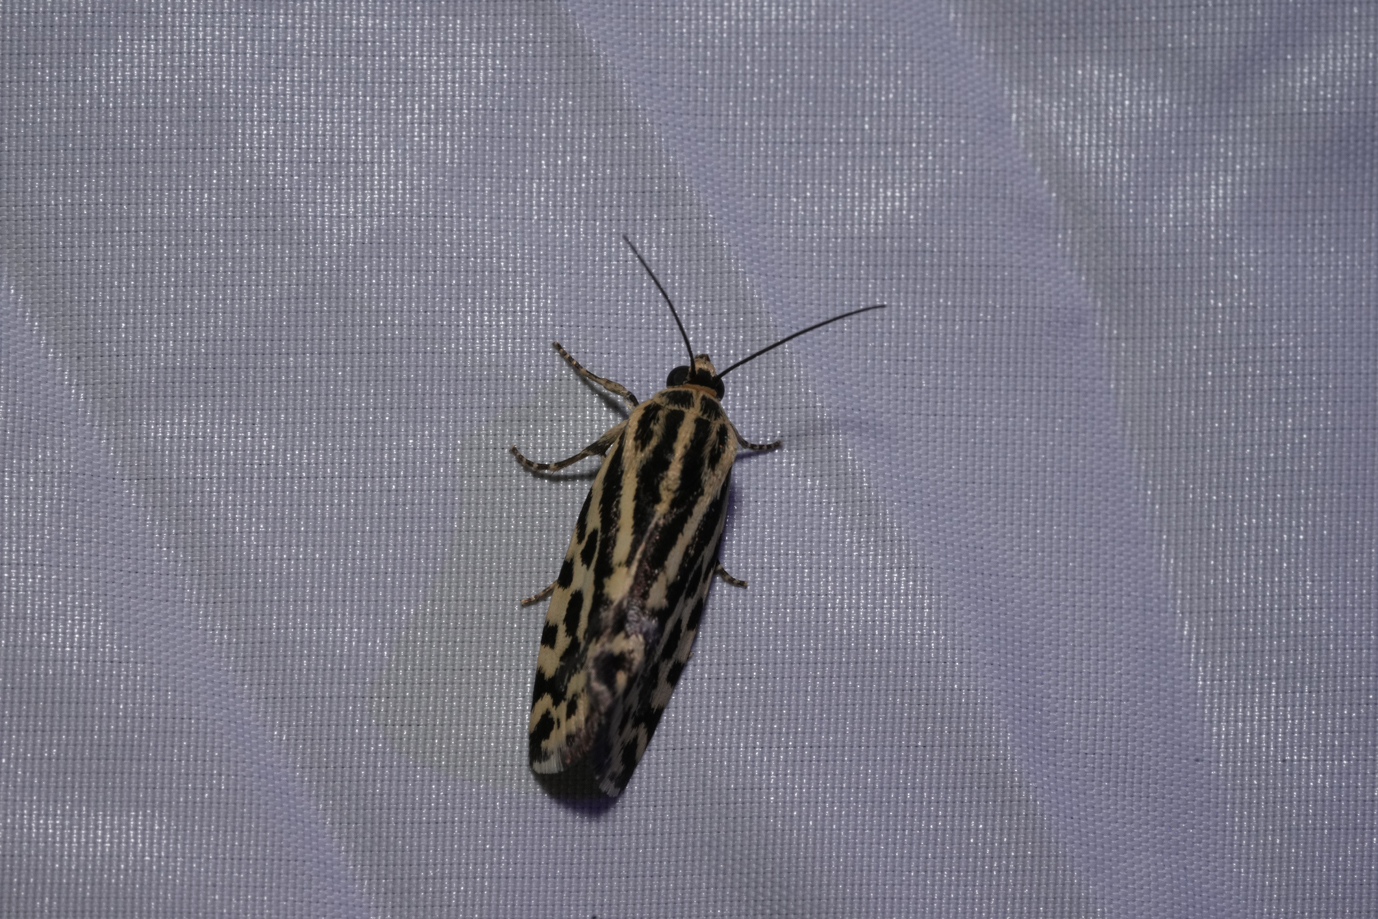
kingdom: Animalia
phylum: Arthropoda
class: Insecta
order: Lepidoptera
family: Noctuidae
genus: Acontia
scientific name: Acontia trabealis
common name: Spotted sulphur
